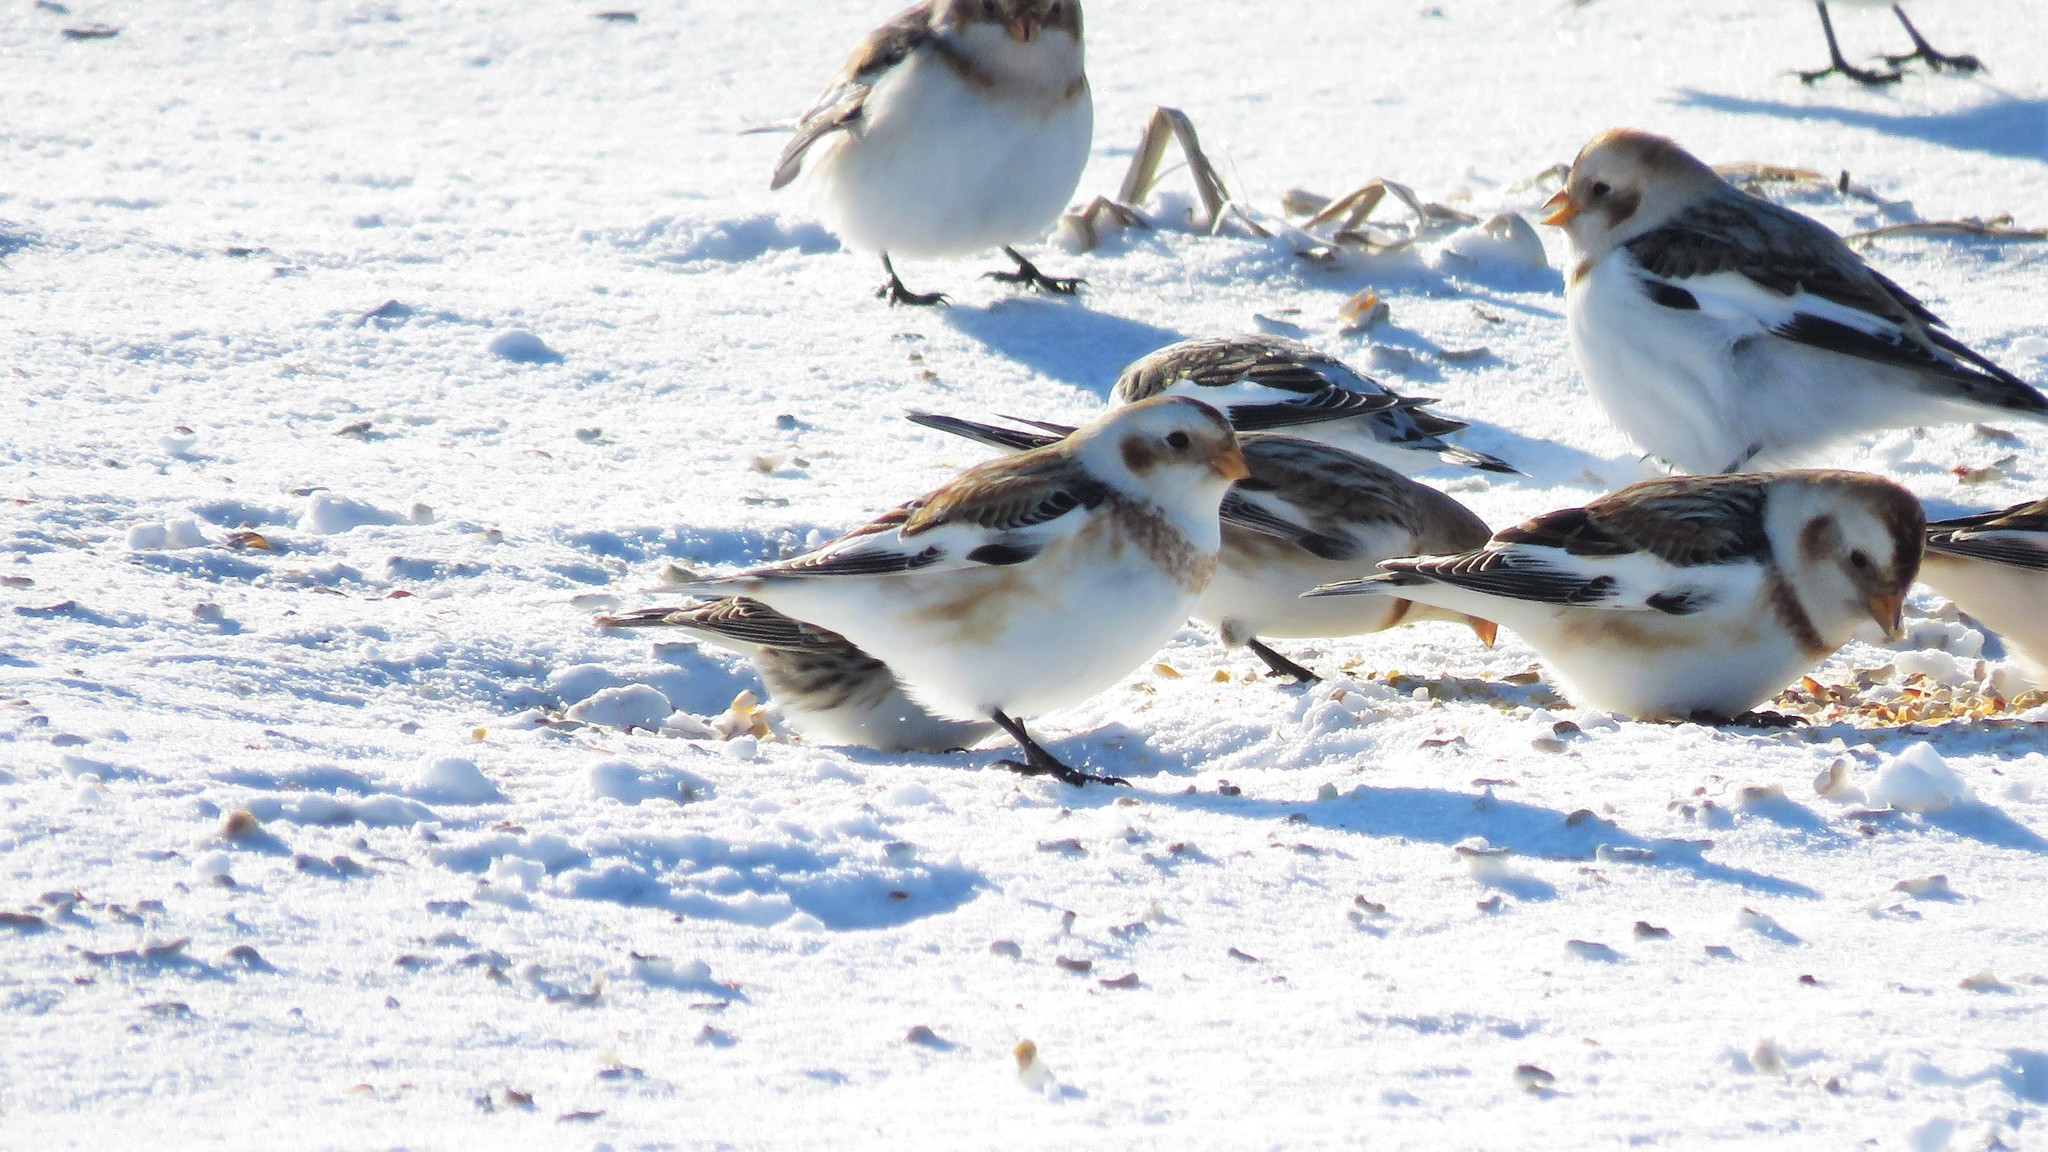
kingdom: Animalia
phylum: Chordata
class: Aves
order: Passeriformes
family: Calcariidae
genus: Plectrophenax
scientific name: Plectrophenax nivalis
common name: Snow bunting
